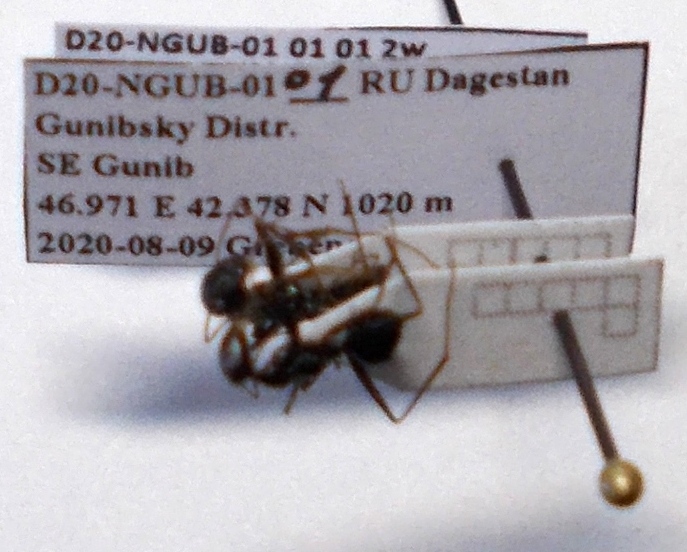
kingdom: Animalia
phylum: Arthropoda
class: Insecta
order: Hymenoptera
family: Formicidae
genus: Cataglyphis
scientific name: Cataglyphis aenescens
